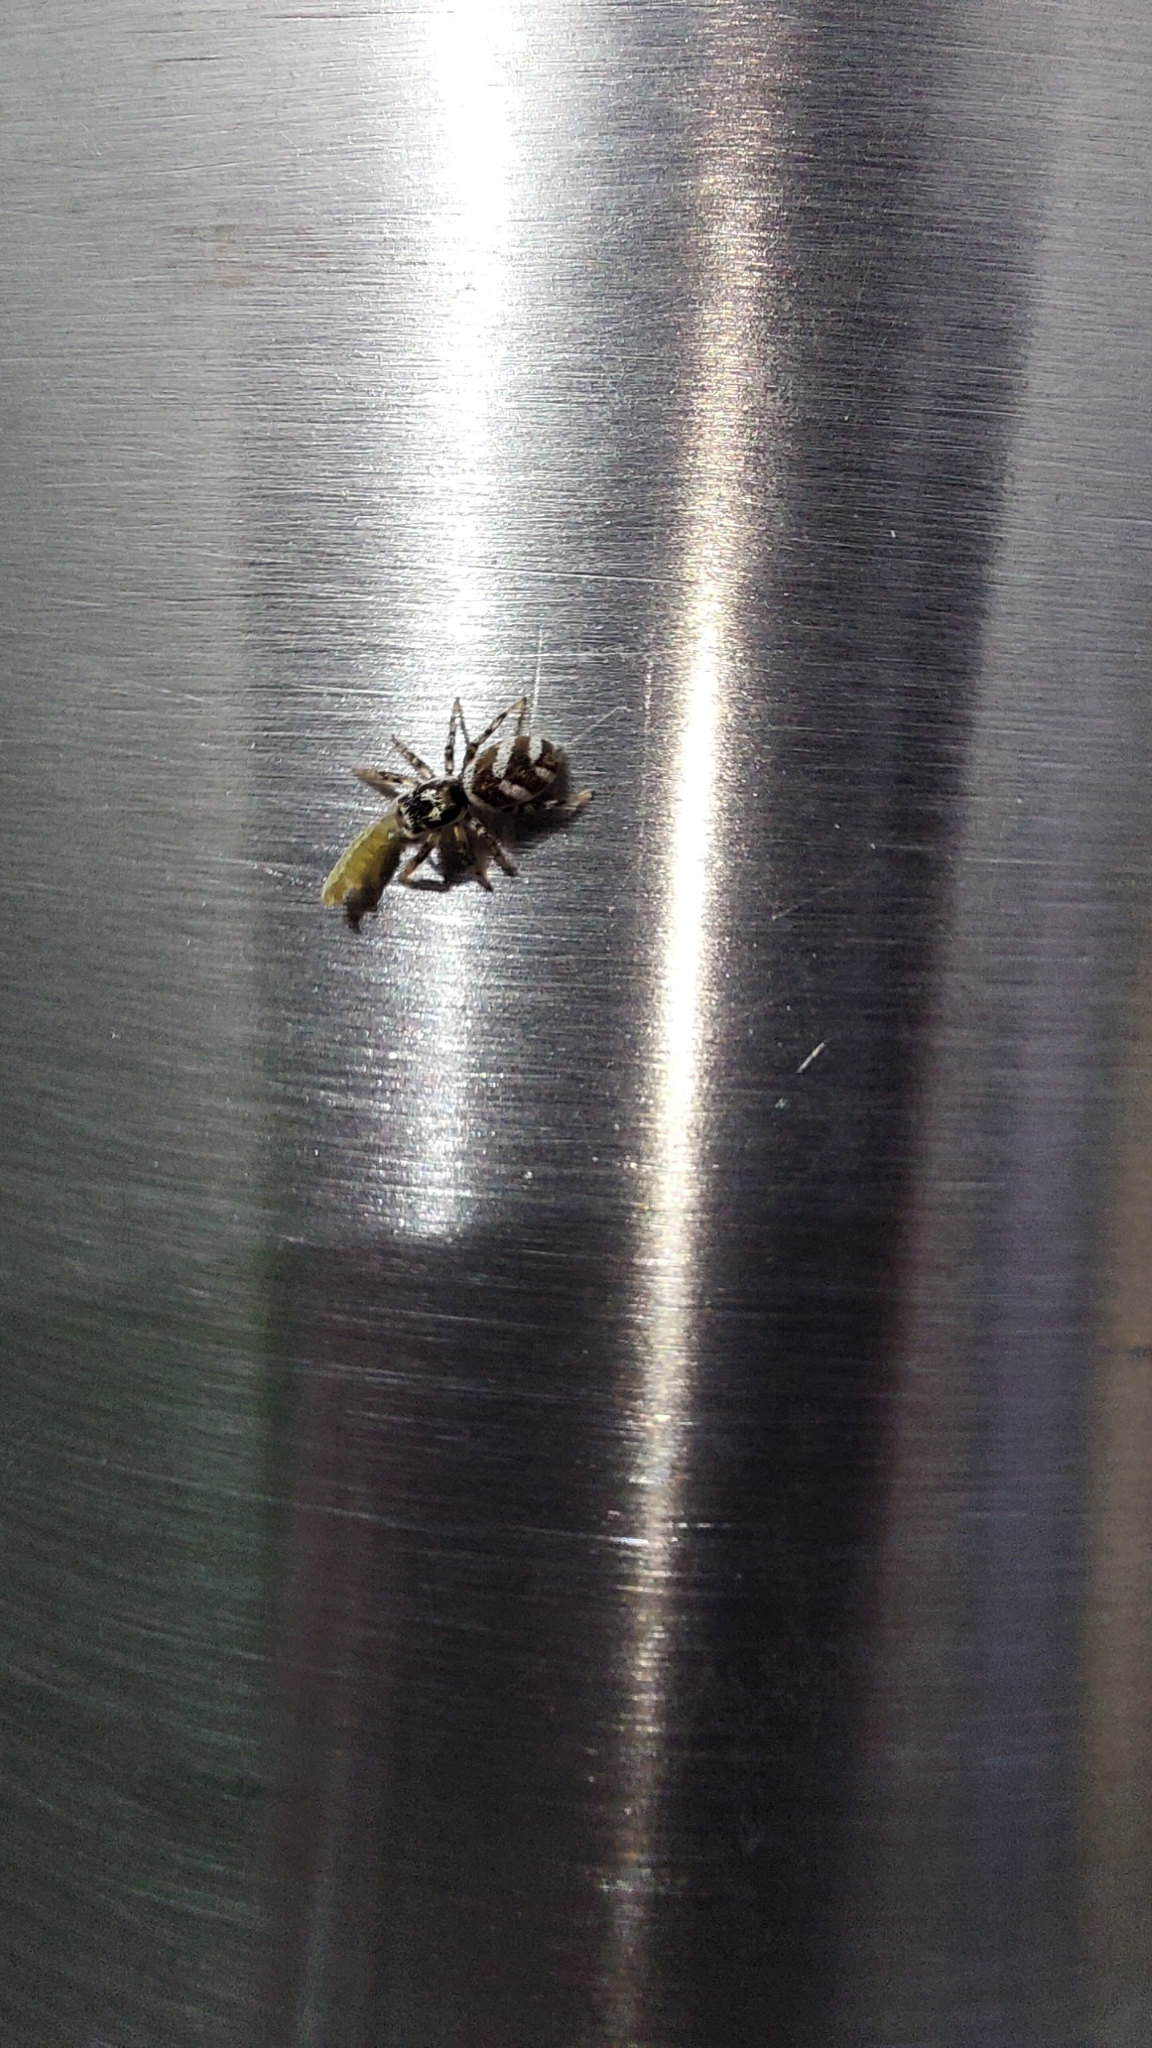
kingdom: Animalia
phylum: Arthropoda
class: Arachnida
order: Araneae
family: Salticidae
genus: Salticus
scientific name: Salticus scenicus
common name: Zebra jumper
